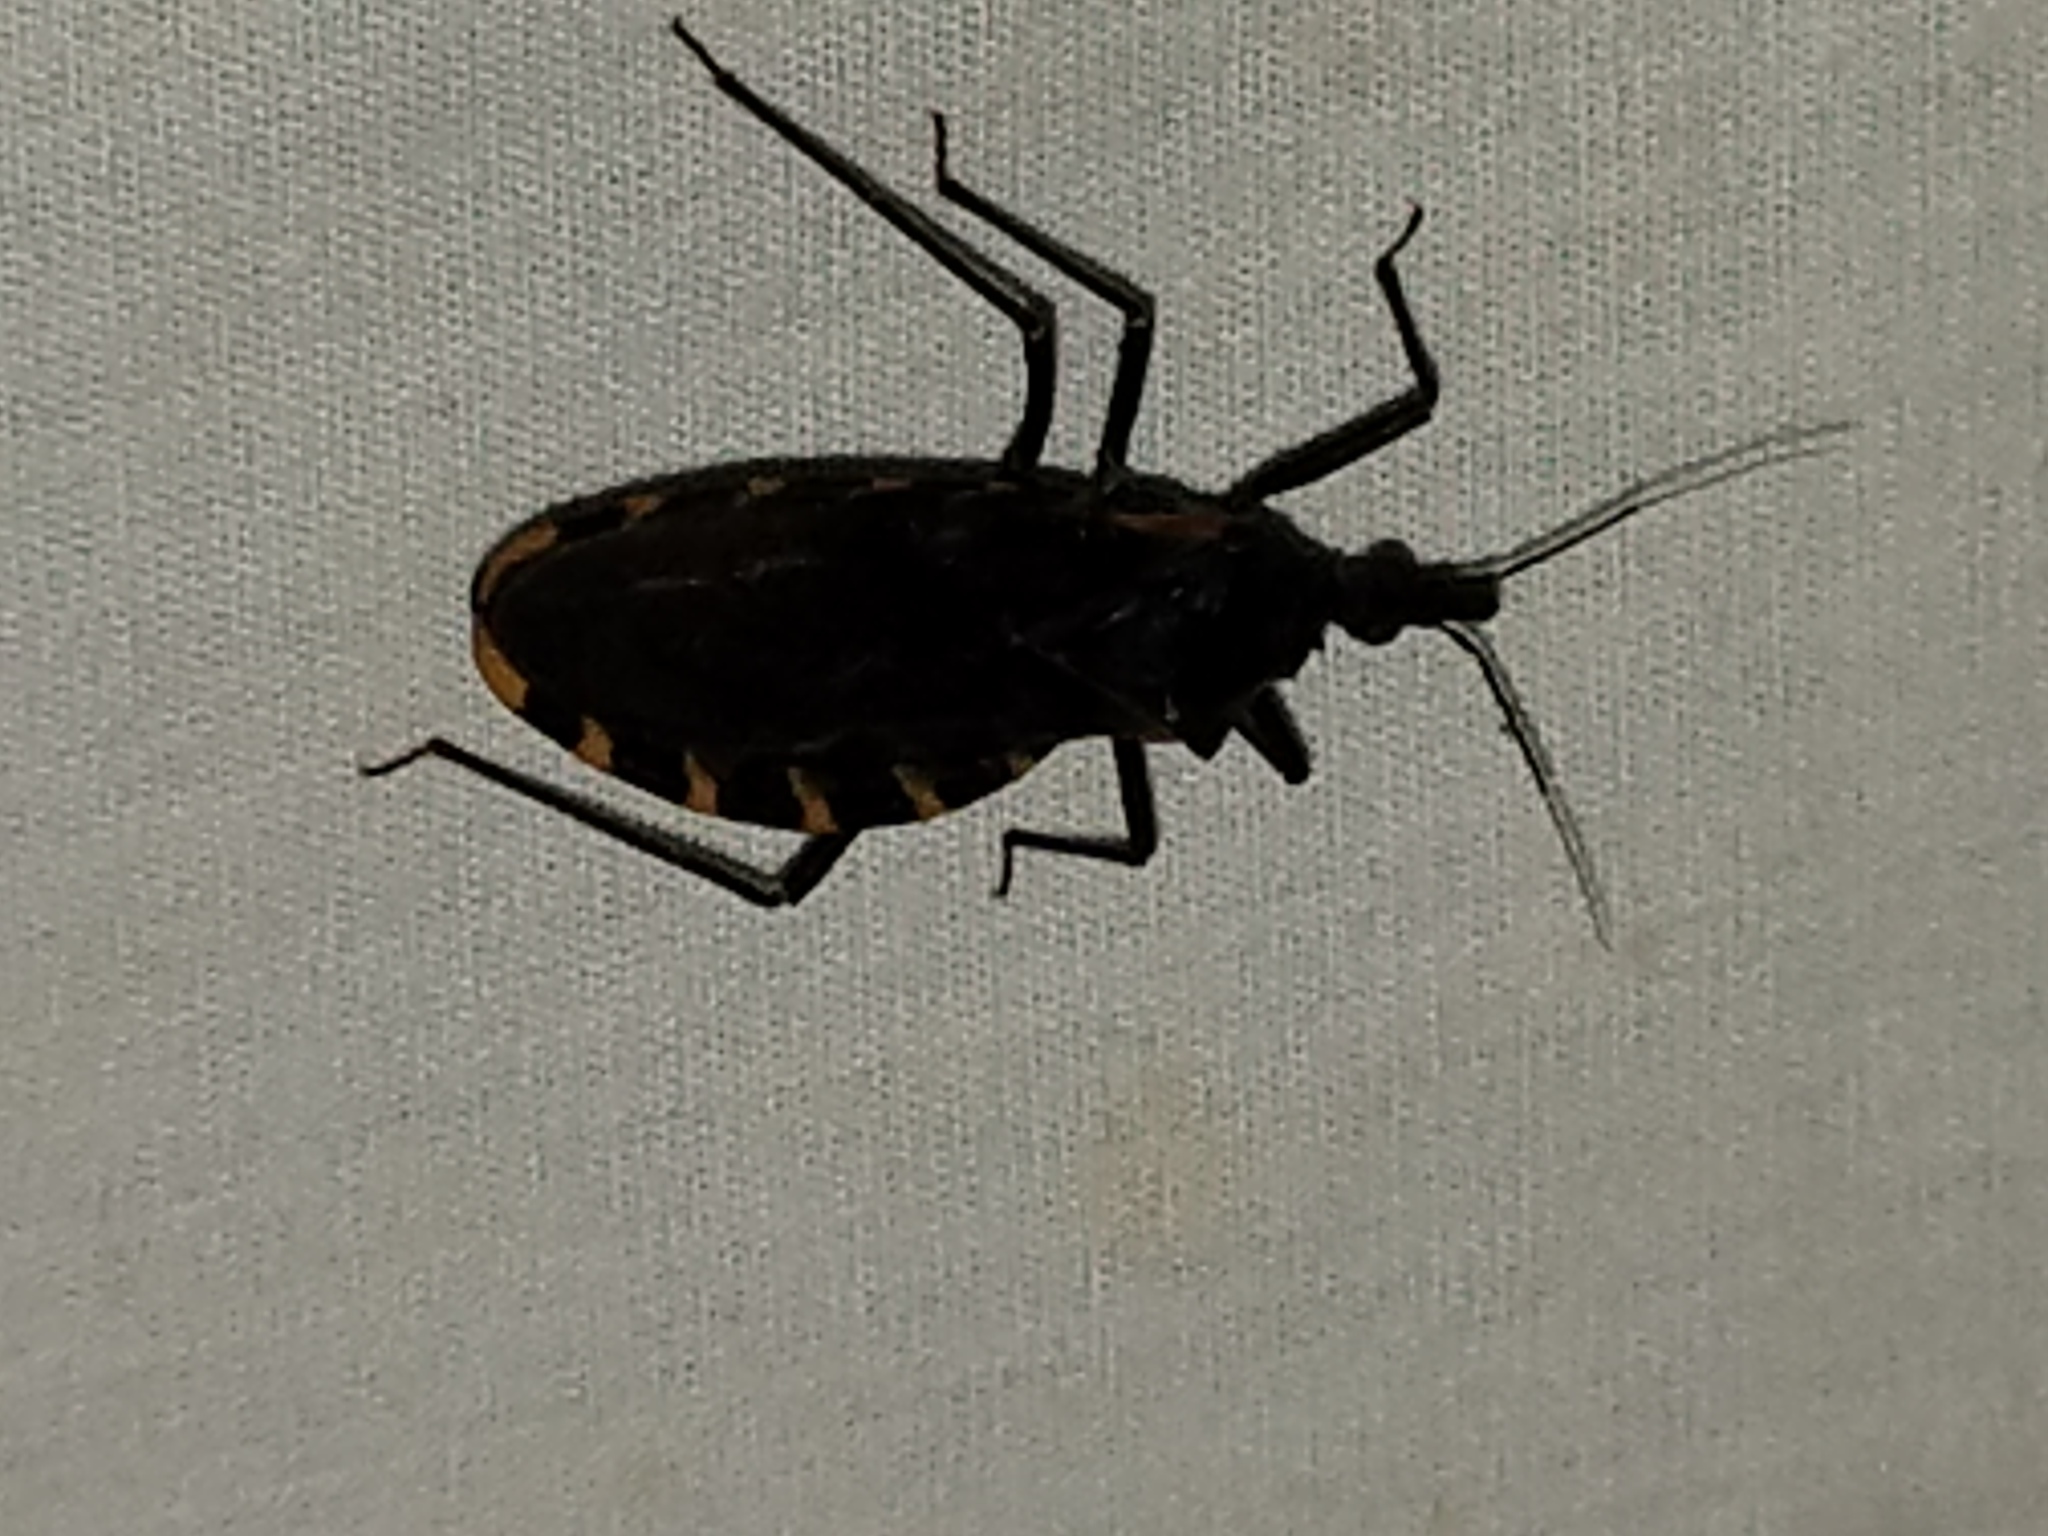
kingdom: Animalia
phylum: Arthropoda
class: Insecta
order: Hemiptera
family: Reduviidae
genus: Triatoma
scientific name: Triatoma gerstaeckeri
